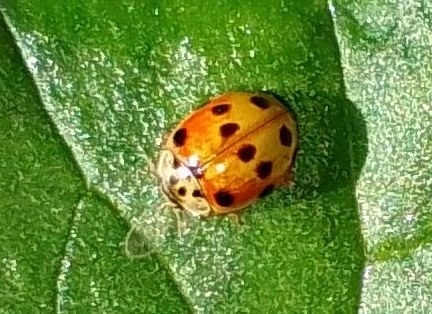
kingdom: Animalia
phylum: Arthropoda
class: Insecta
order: Coleoptera
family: Coccinellidae
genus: Adalia
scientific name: Adalia decempunctata
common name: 10-spot ladybird
